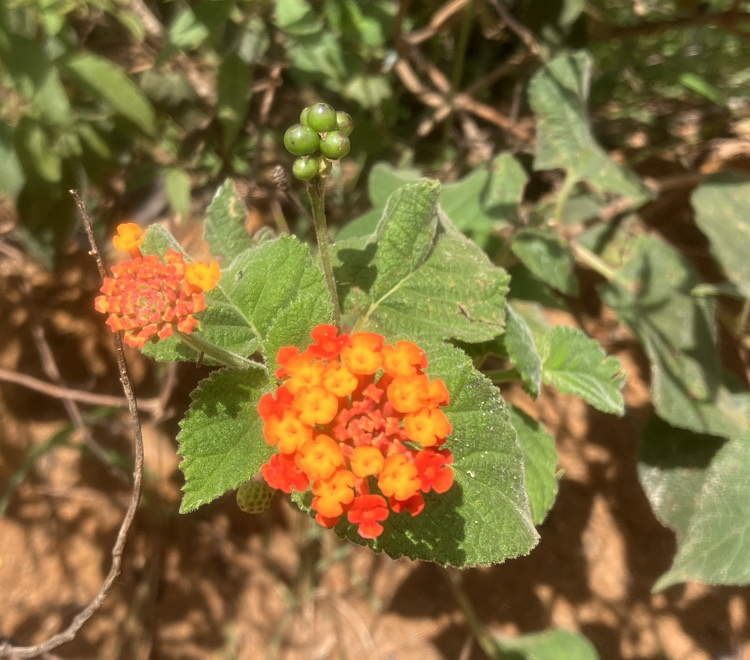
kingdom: Plantae
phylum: Tracheophyta
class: Magnoliopsida
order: Lamiales
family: Verbenaceae
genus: Lantana
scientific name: Lantana camara
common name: Lantana
